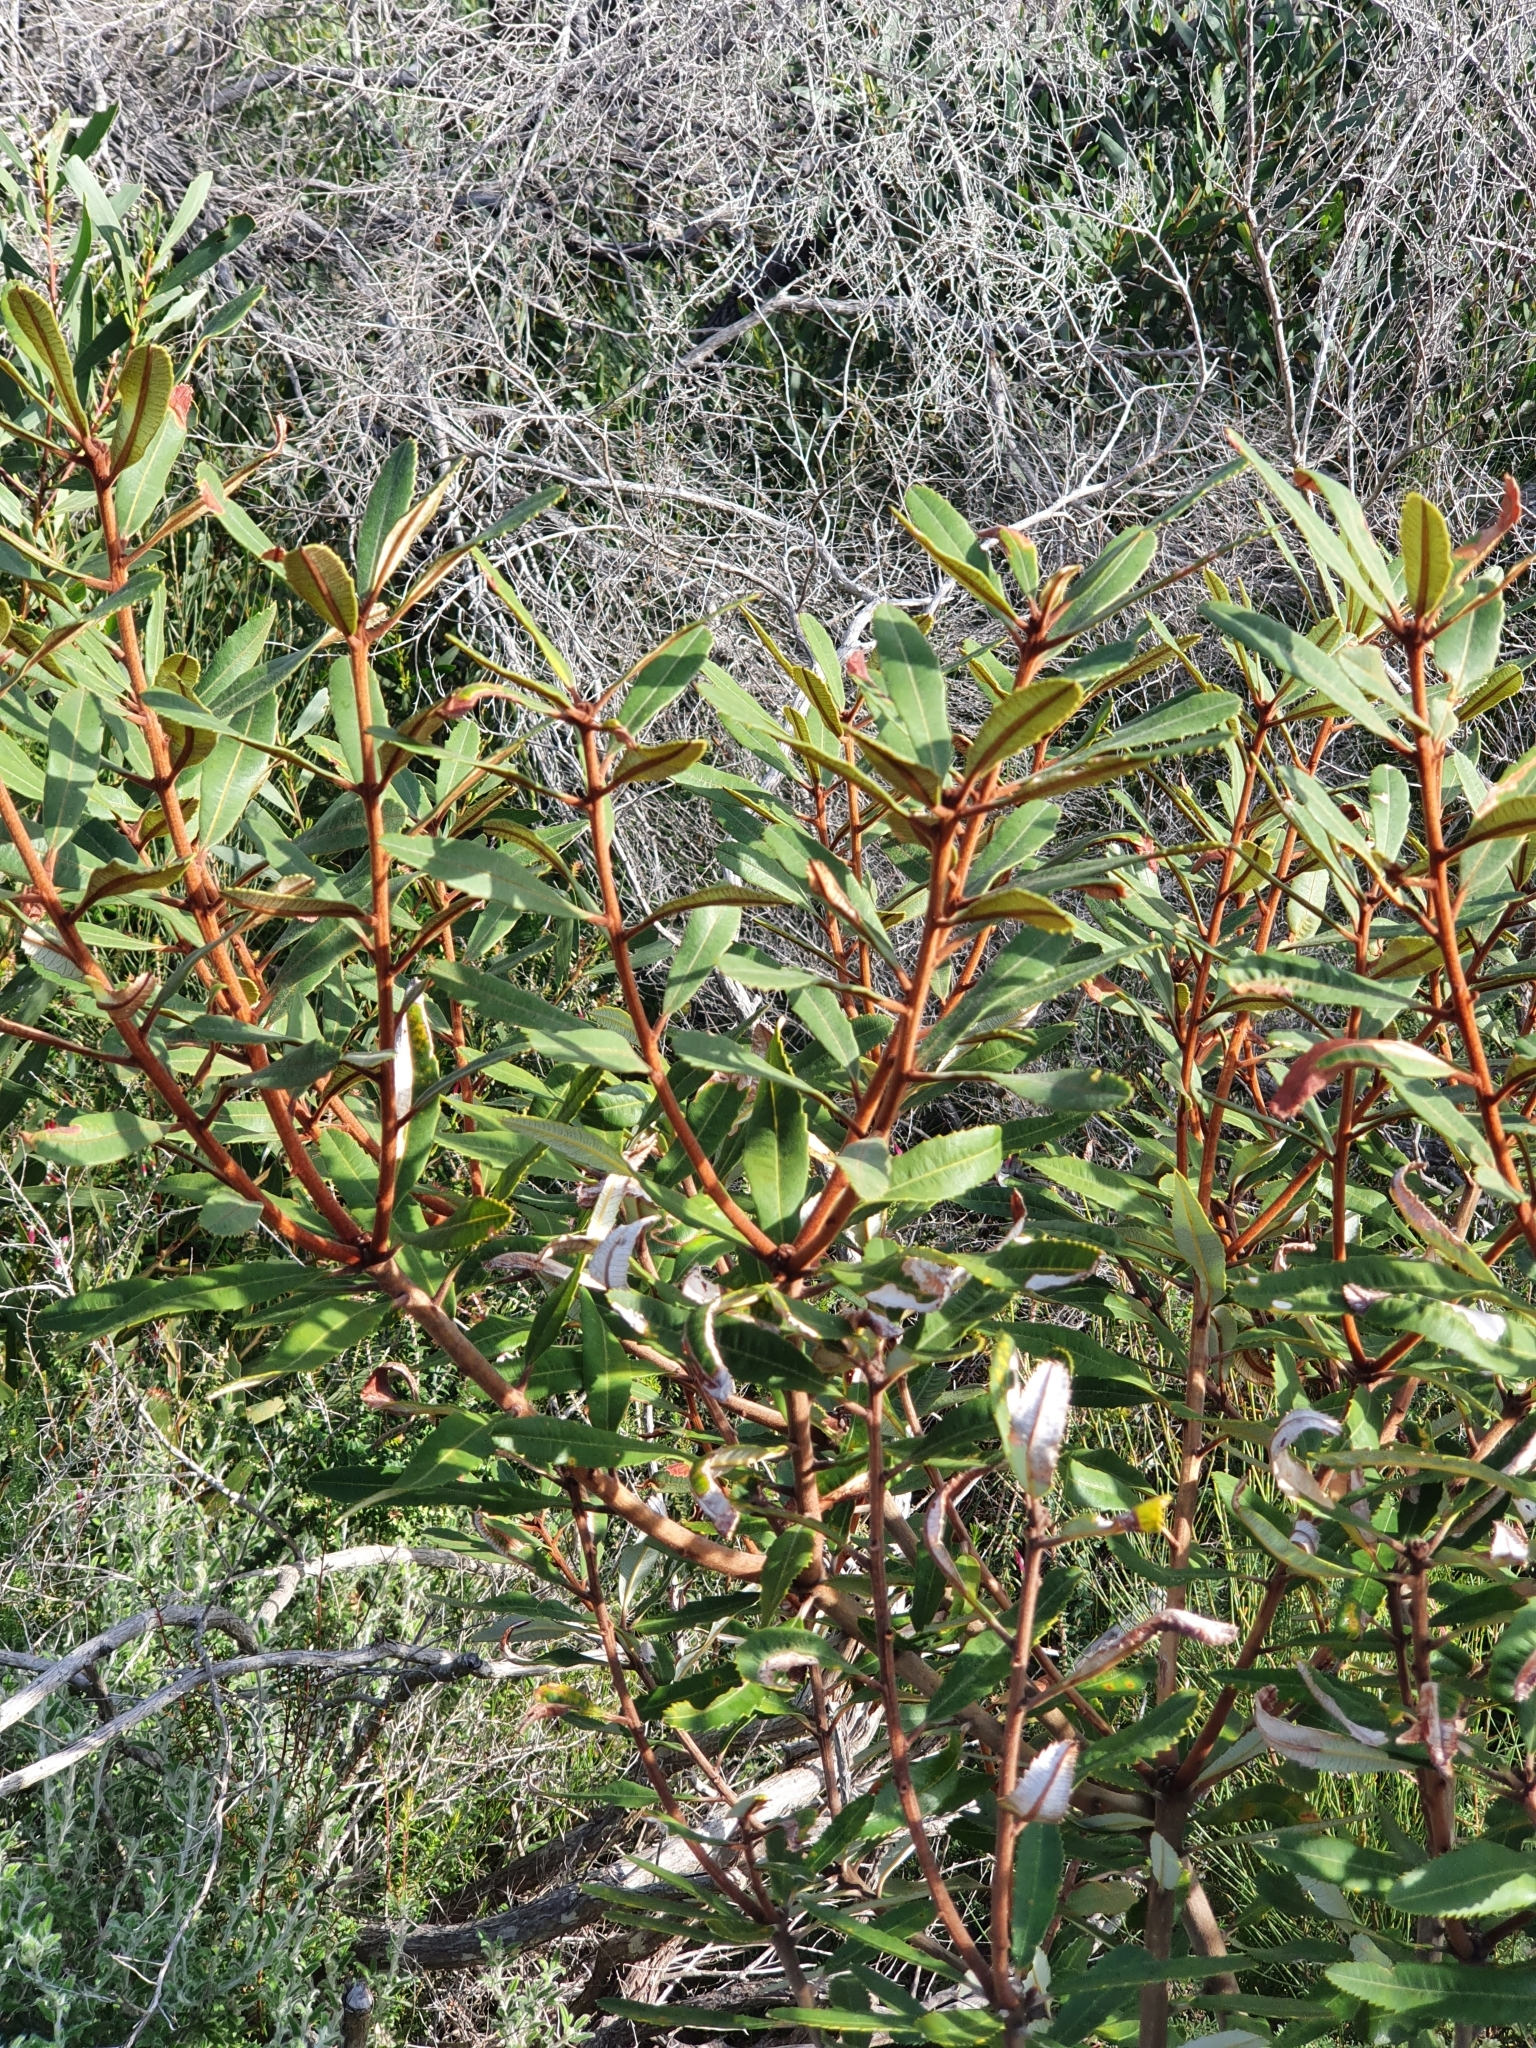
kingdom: Plantae
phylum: Tracheophyta
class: Magnoliopsida
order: Proteales
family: Proteaceae
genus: Banksia
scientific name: Banksia oblongifolia
